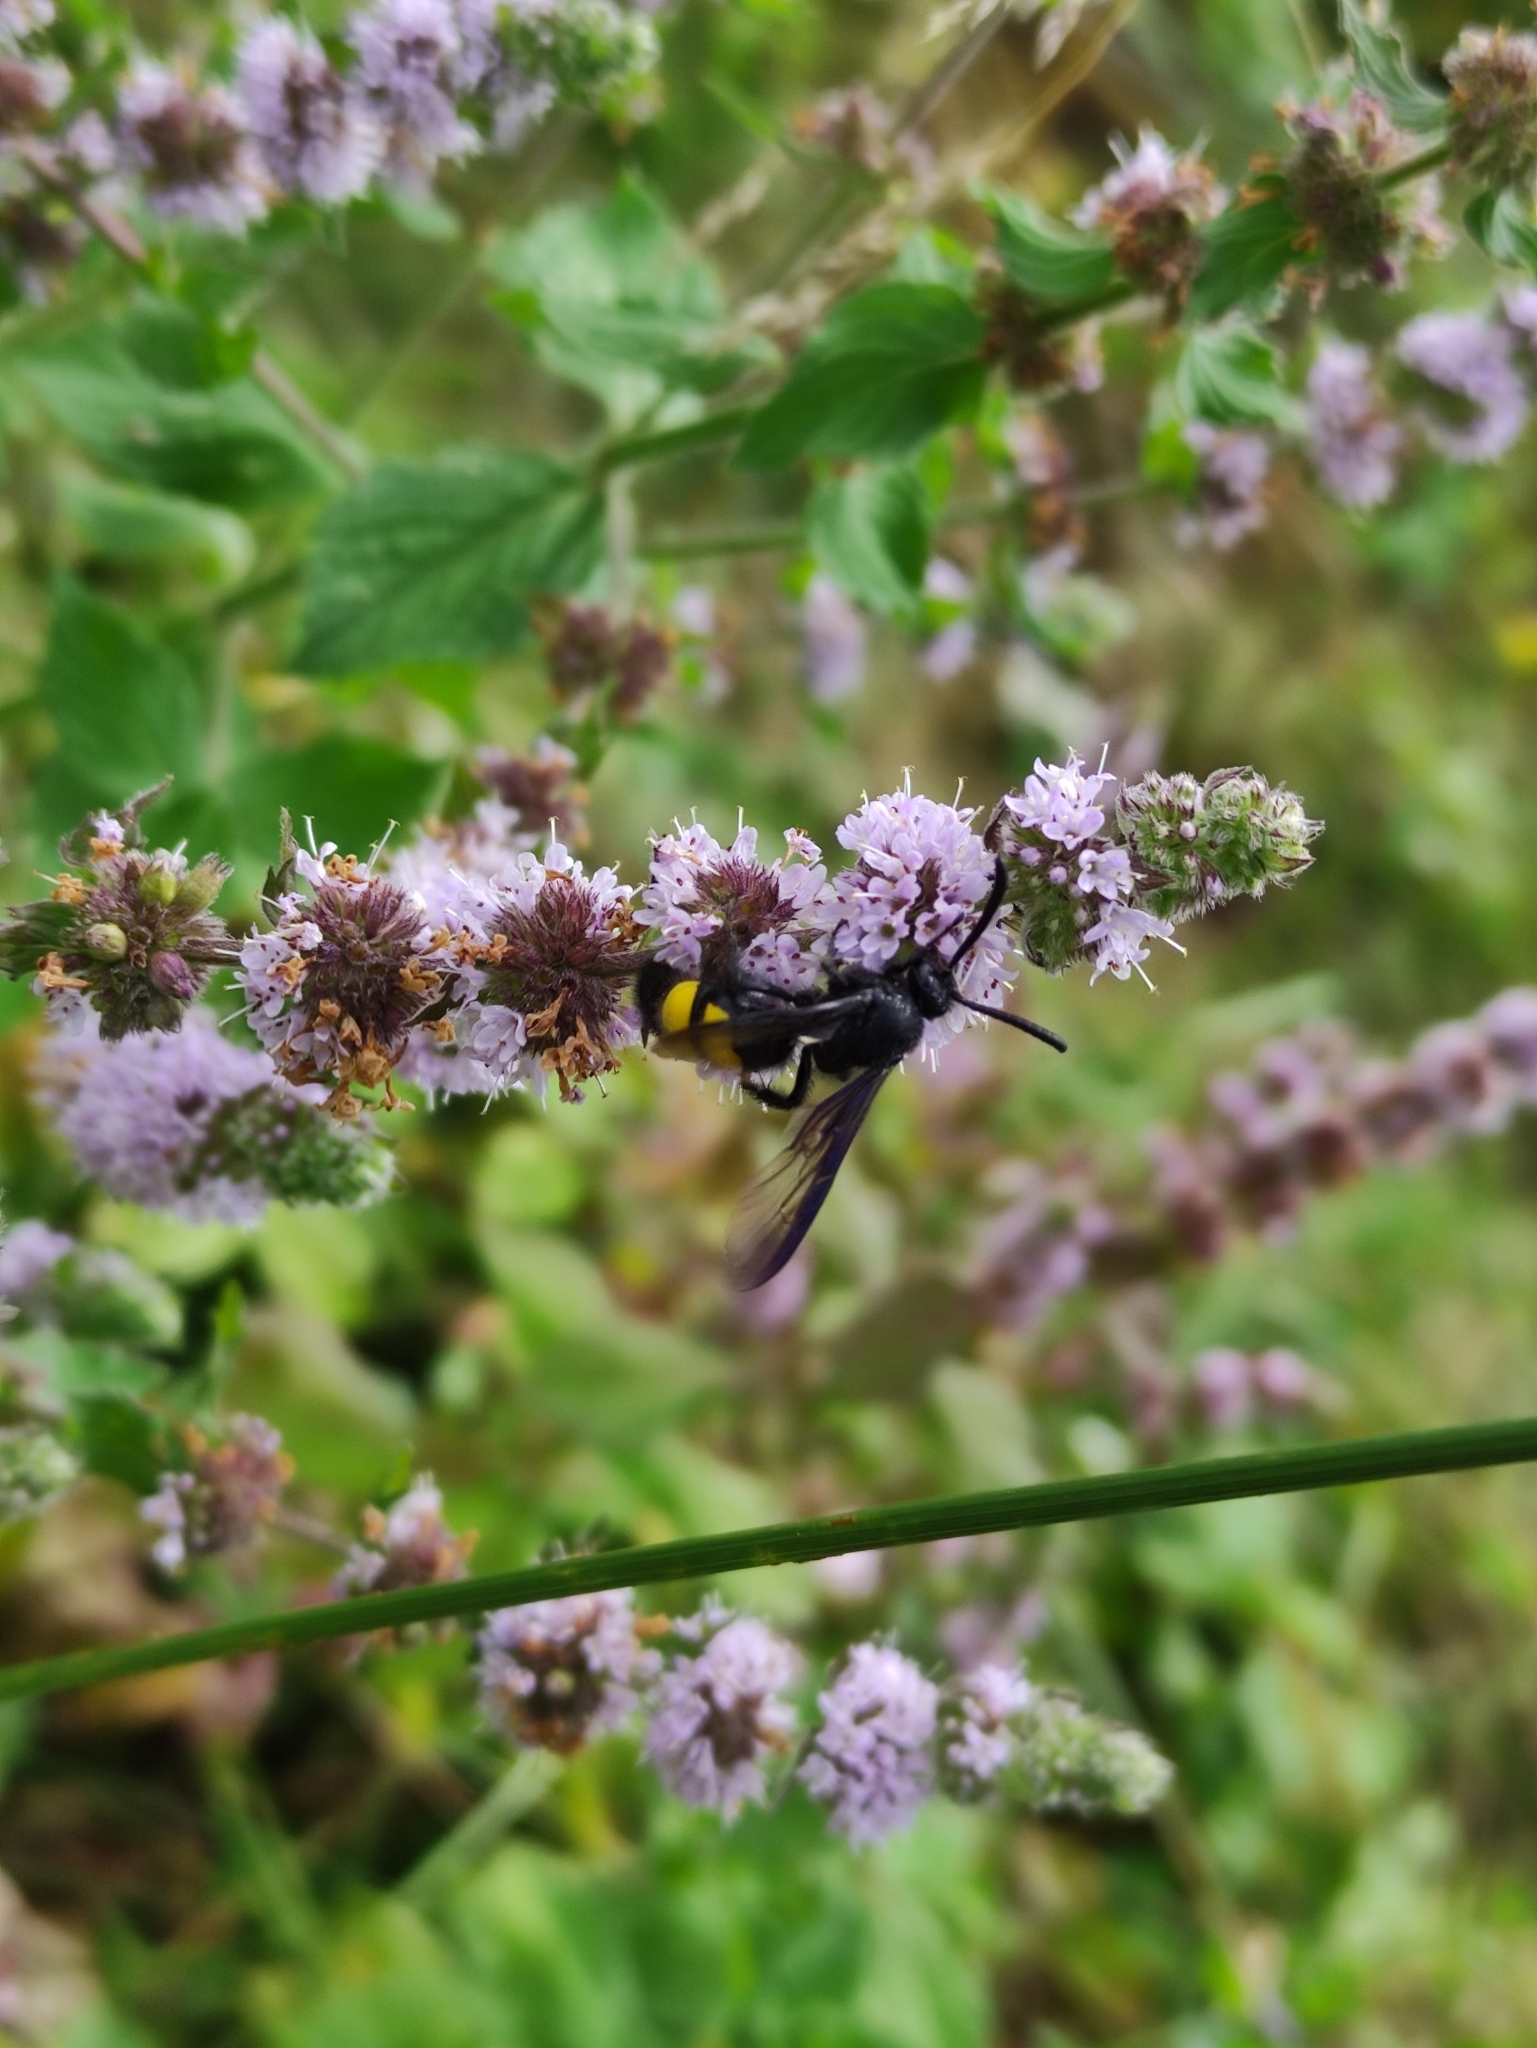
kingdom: Animalia
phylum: Arthropoda
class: Insecta
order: Hymenoptera
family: Scoliidae
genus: Scolia
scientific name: Scolia hirta
